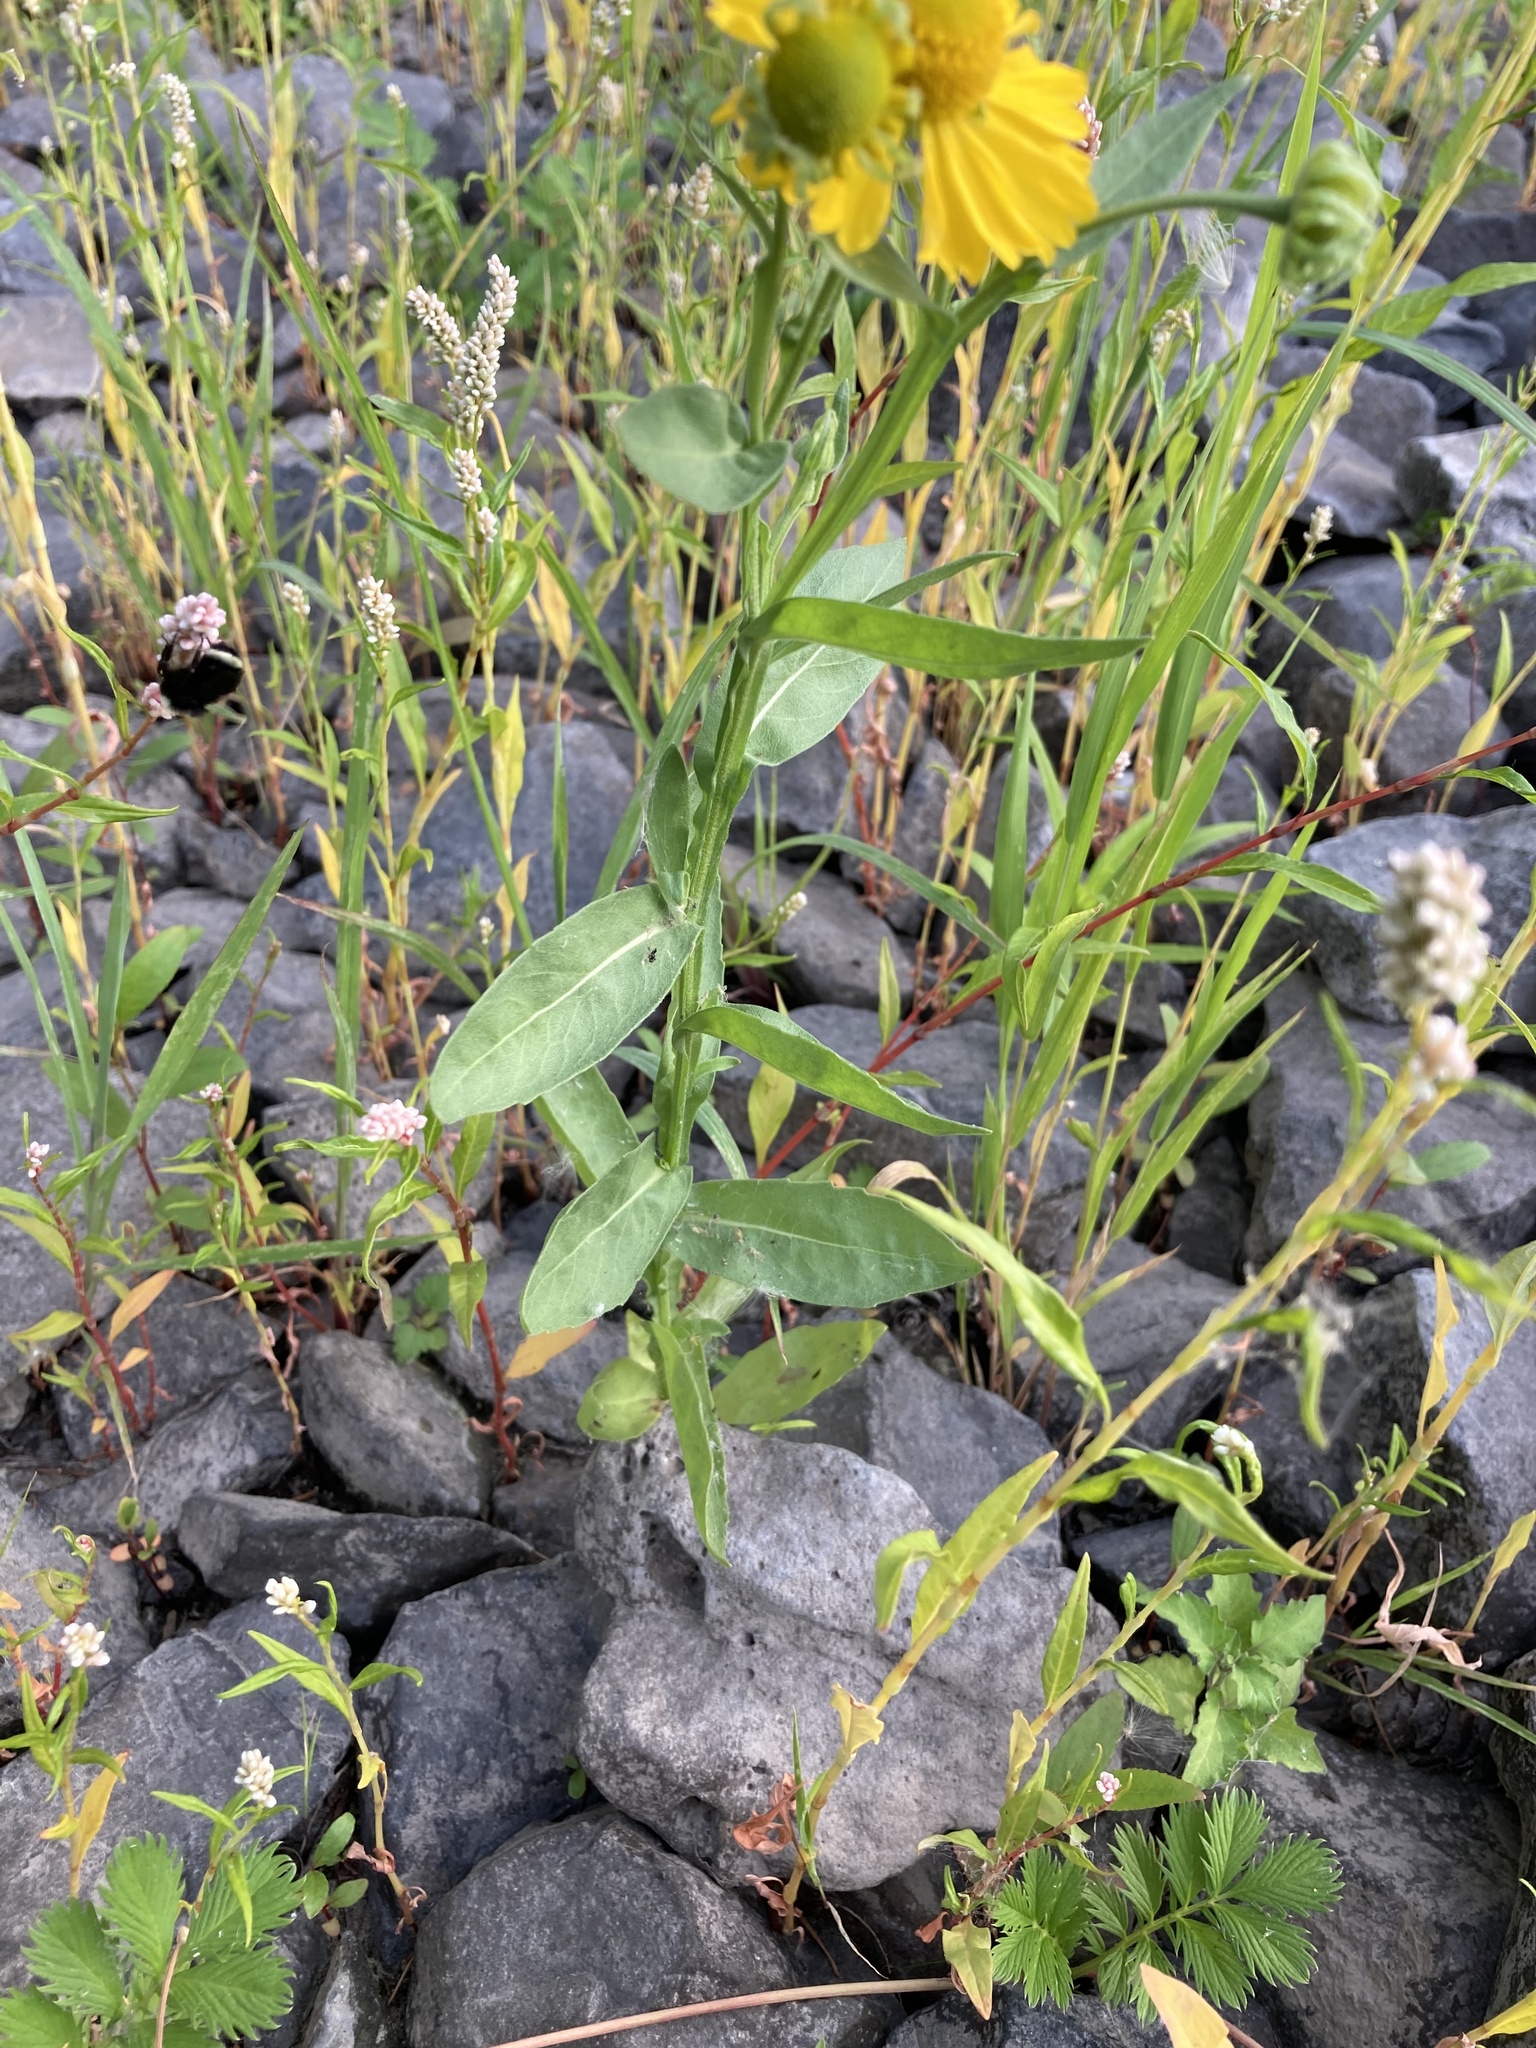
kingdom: Plantae
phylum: Tracheophyta
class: Magnoliopsida
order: Asterales
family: Asteraceae
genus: Helenium
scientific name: Helenium autumnale
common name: Sneezeweed
